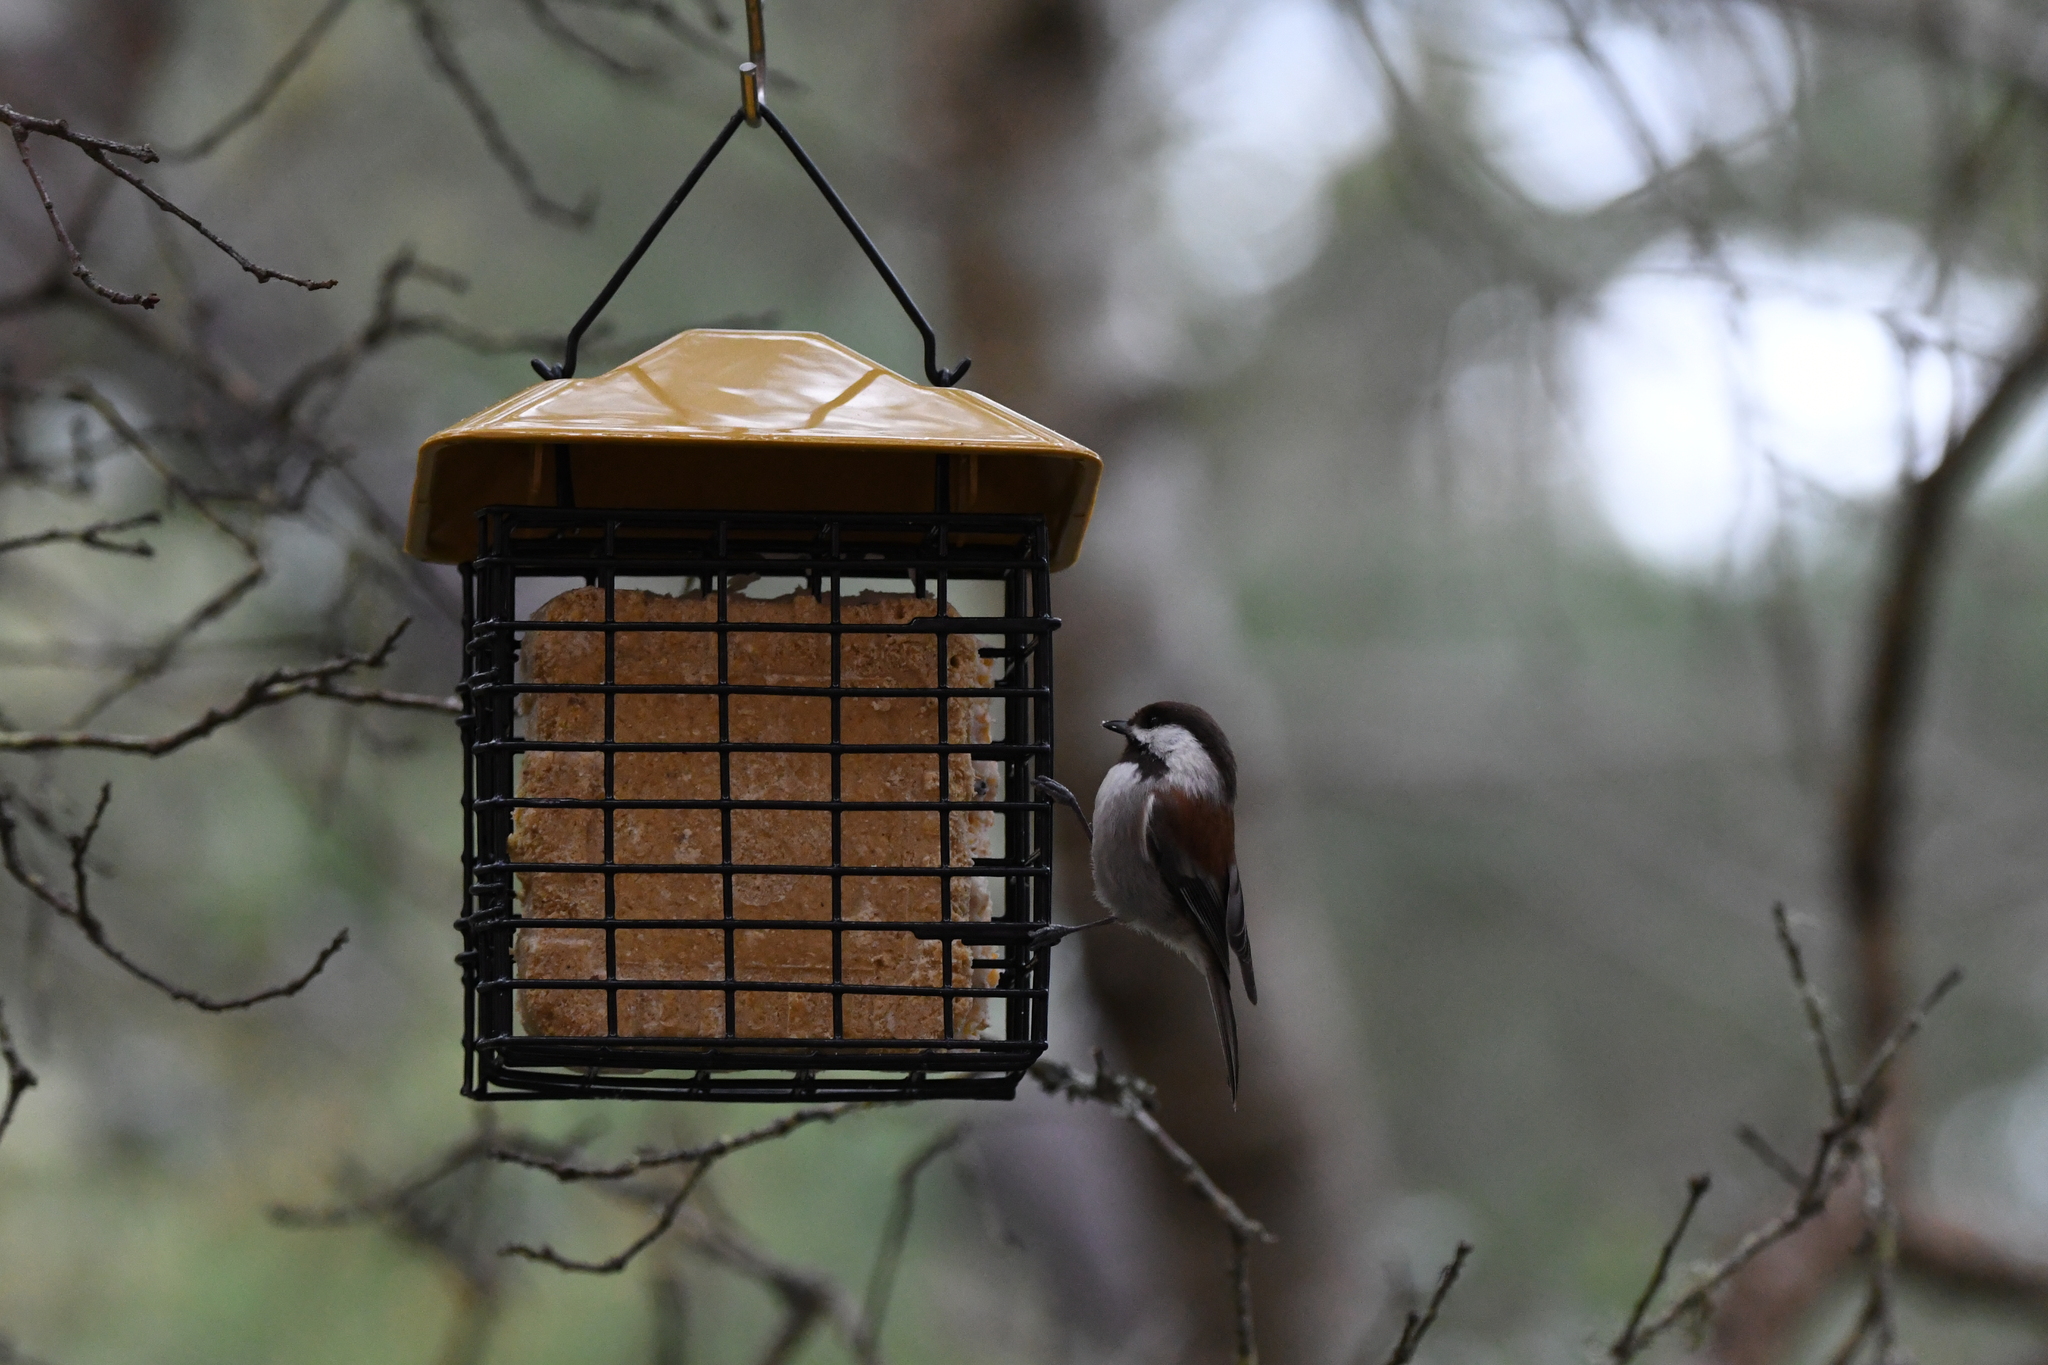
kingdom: Animalia
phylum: Chordata
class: Aves
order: Passeriformes
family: Paridae
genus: Poecile
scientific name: Poecile rufescens
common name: Chestnut-backed chickadee
